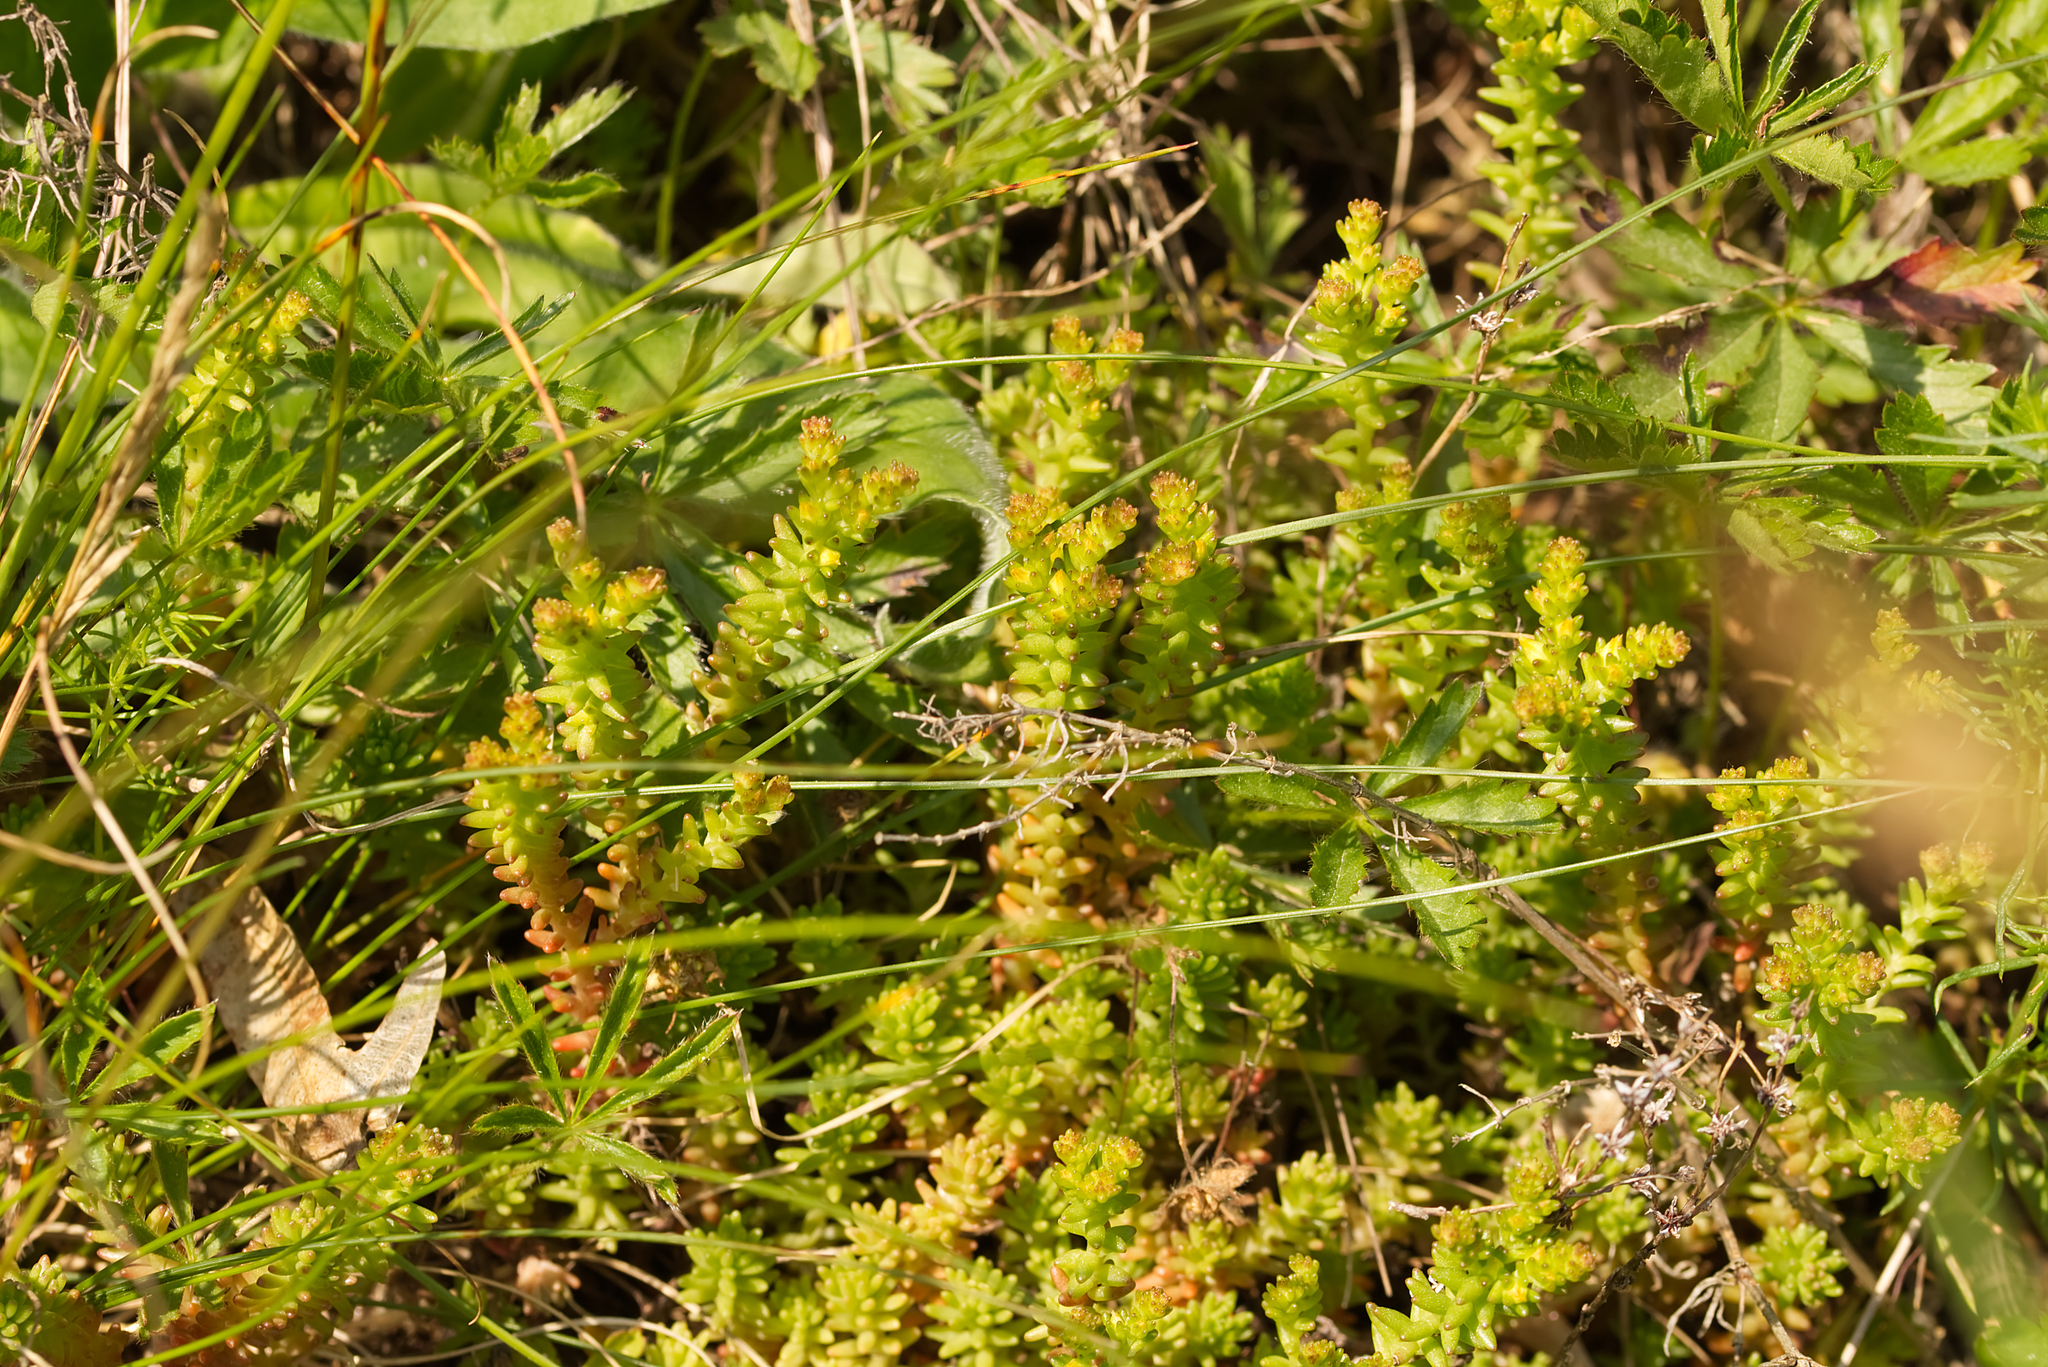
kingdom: Plantae
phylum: Tracheophyta
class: Magnoliopsida
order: Saxifragales
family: Crassulaceae
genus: Sedum
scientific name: Sedum sexangulare
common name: Tasteless stonecrop
